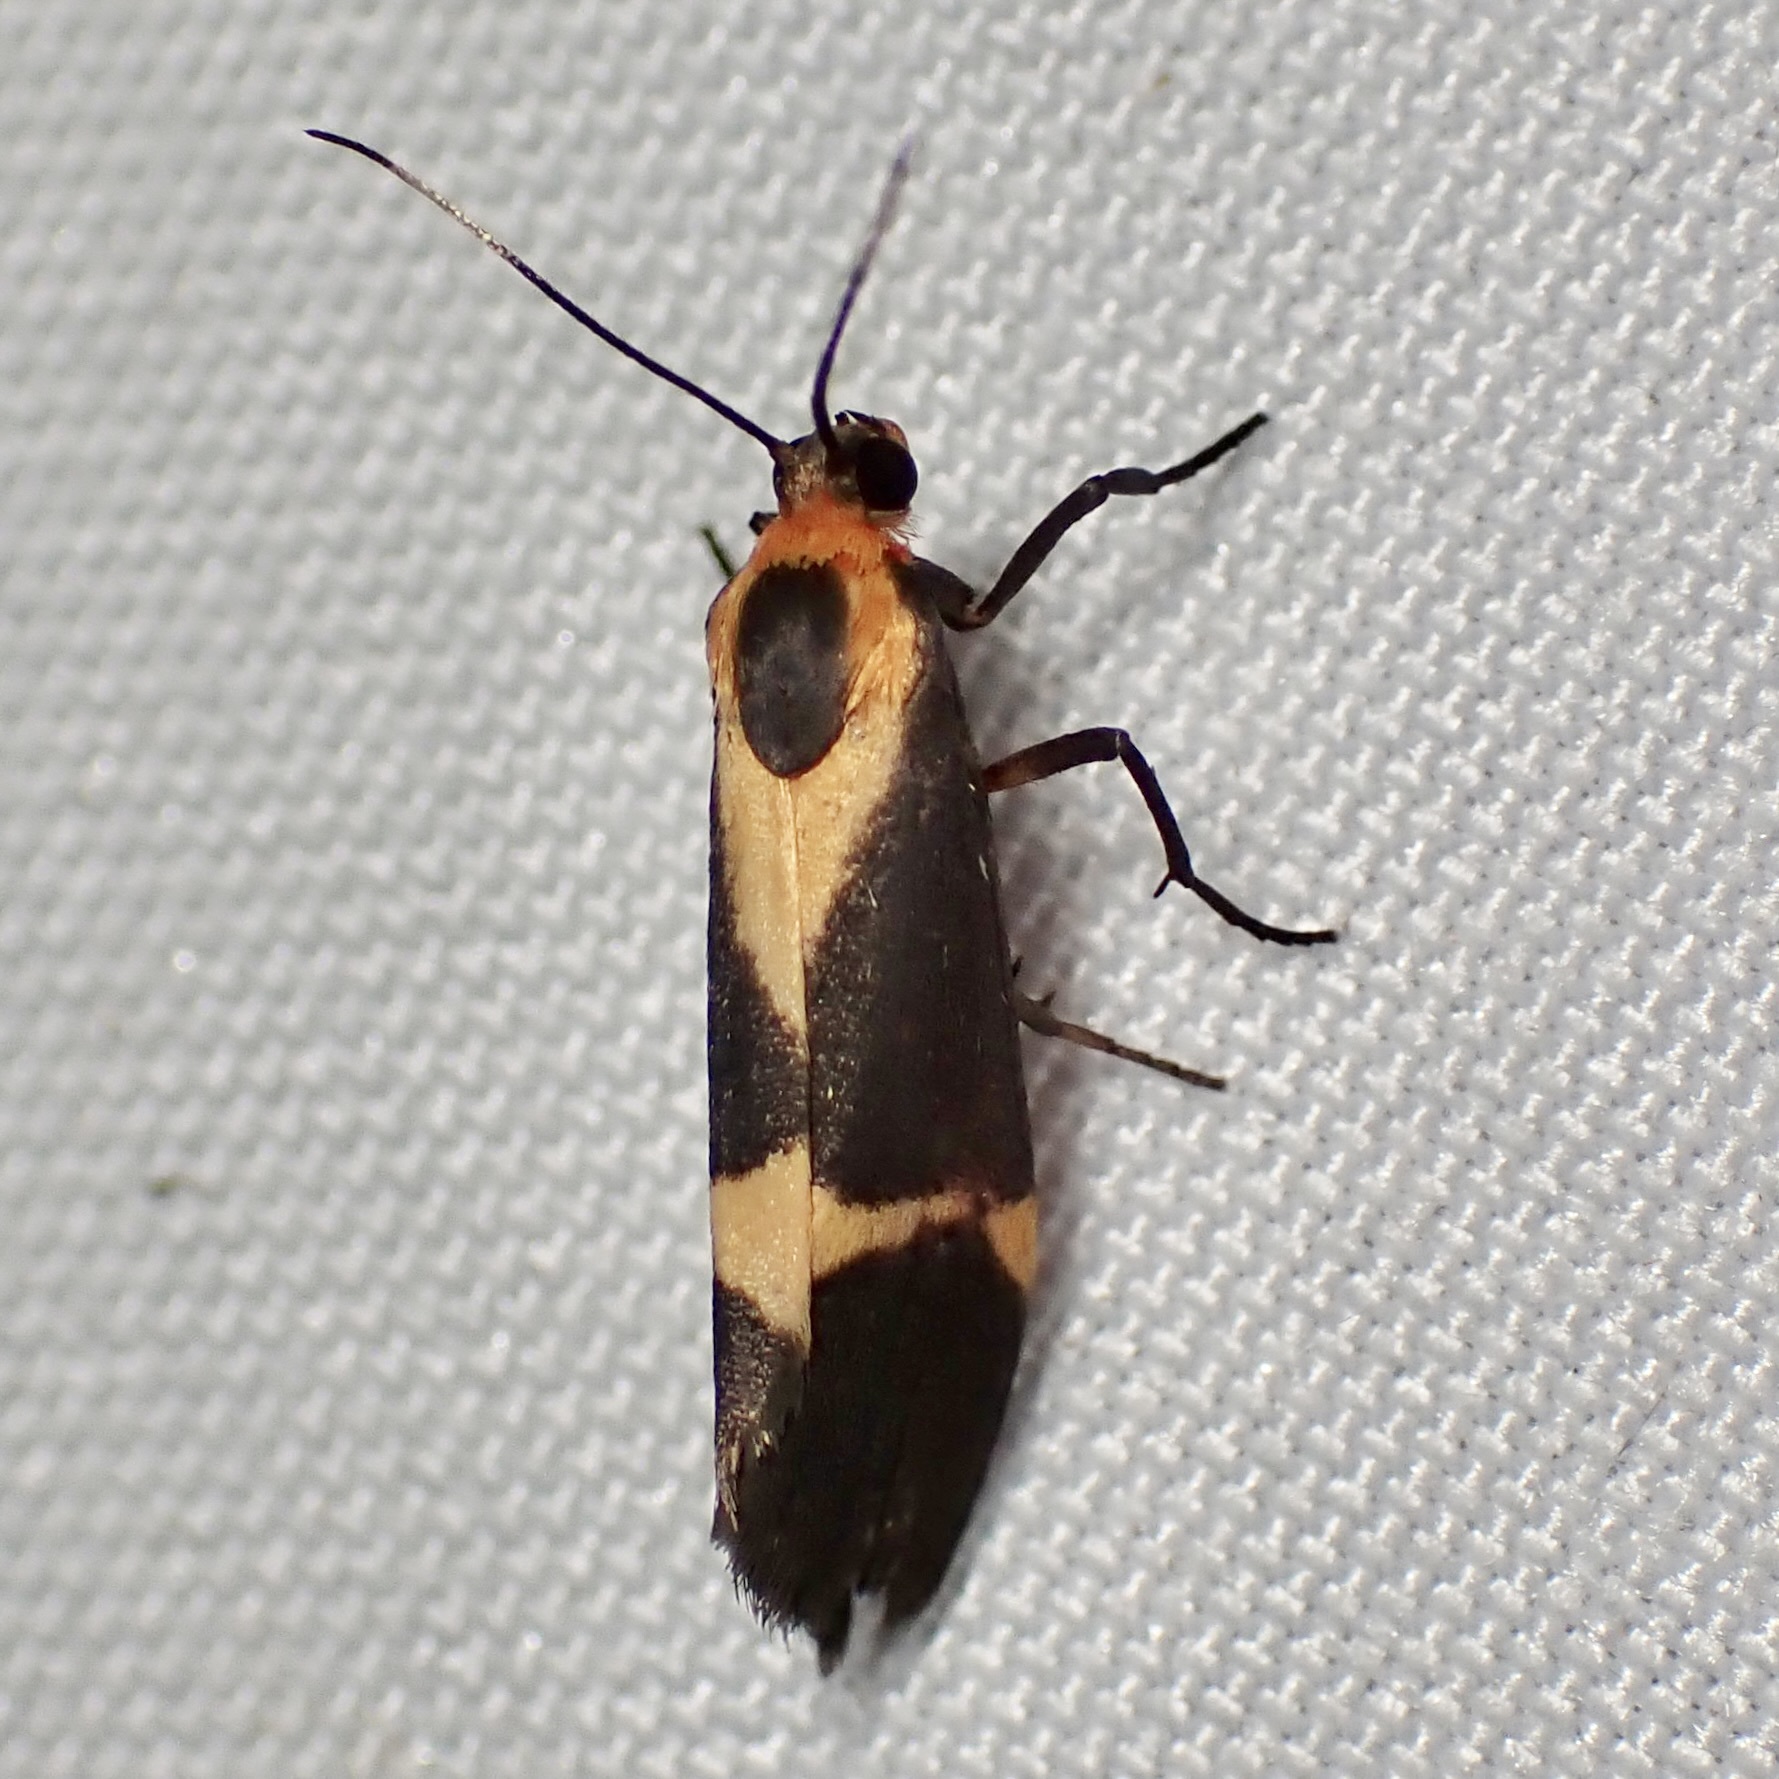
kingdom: Animalia
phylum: Arthropoda
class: Insecta
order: Lepidoptera
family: Erebidae
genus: Cisthene
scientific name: Cisthene tenuifascia
